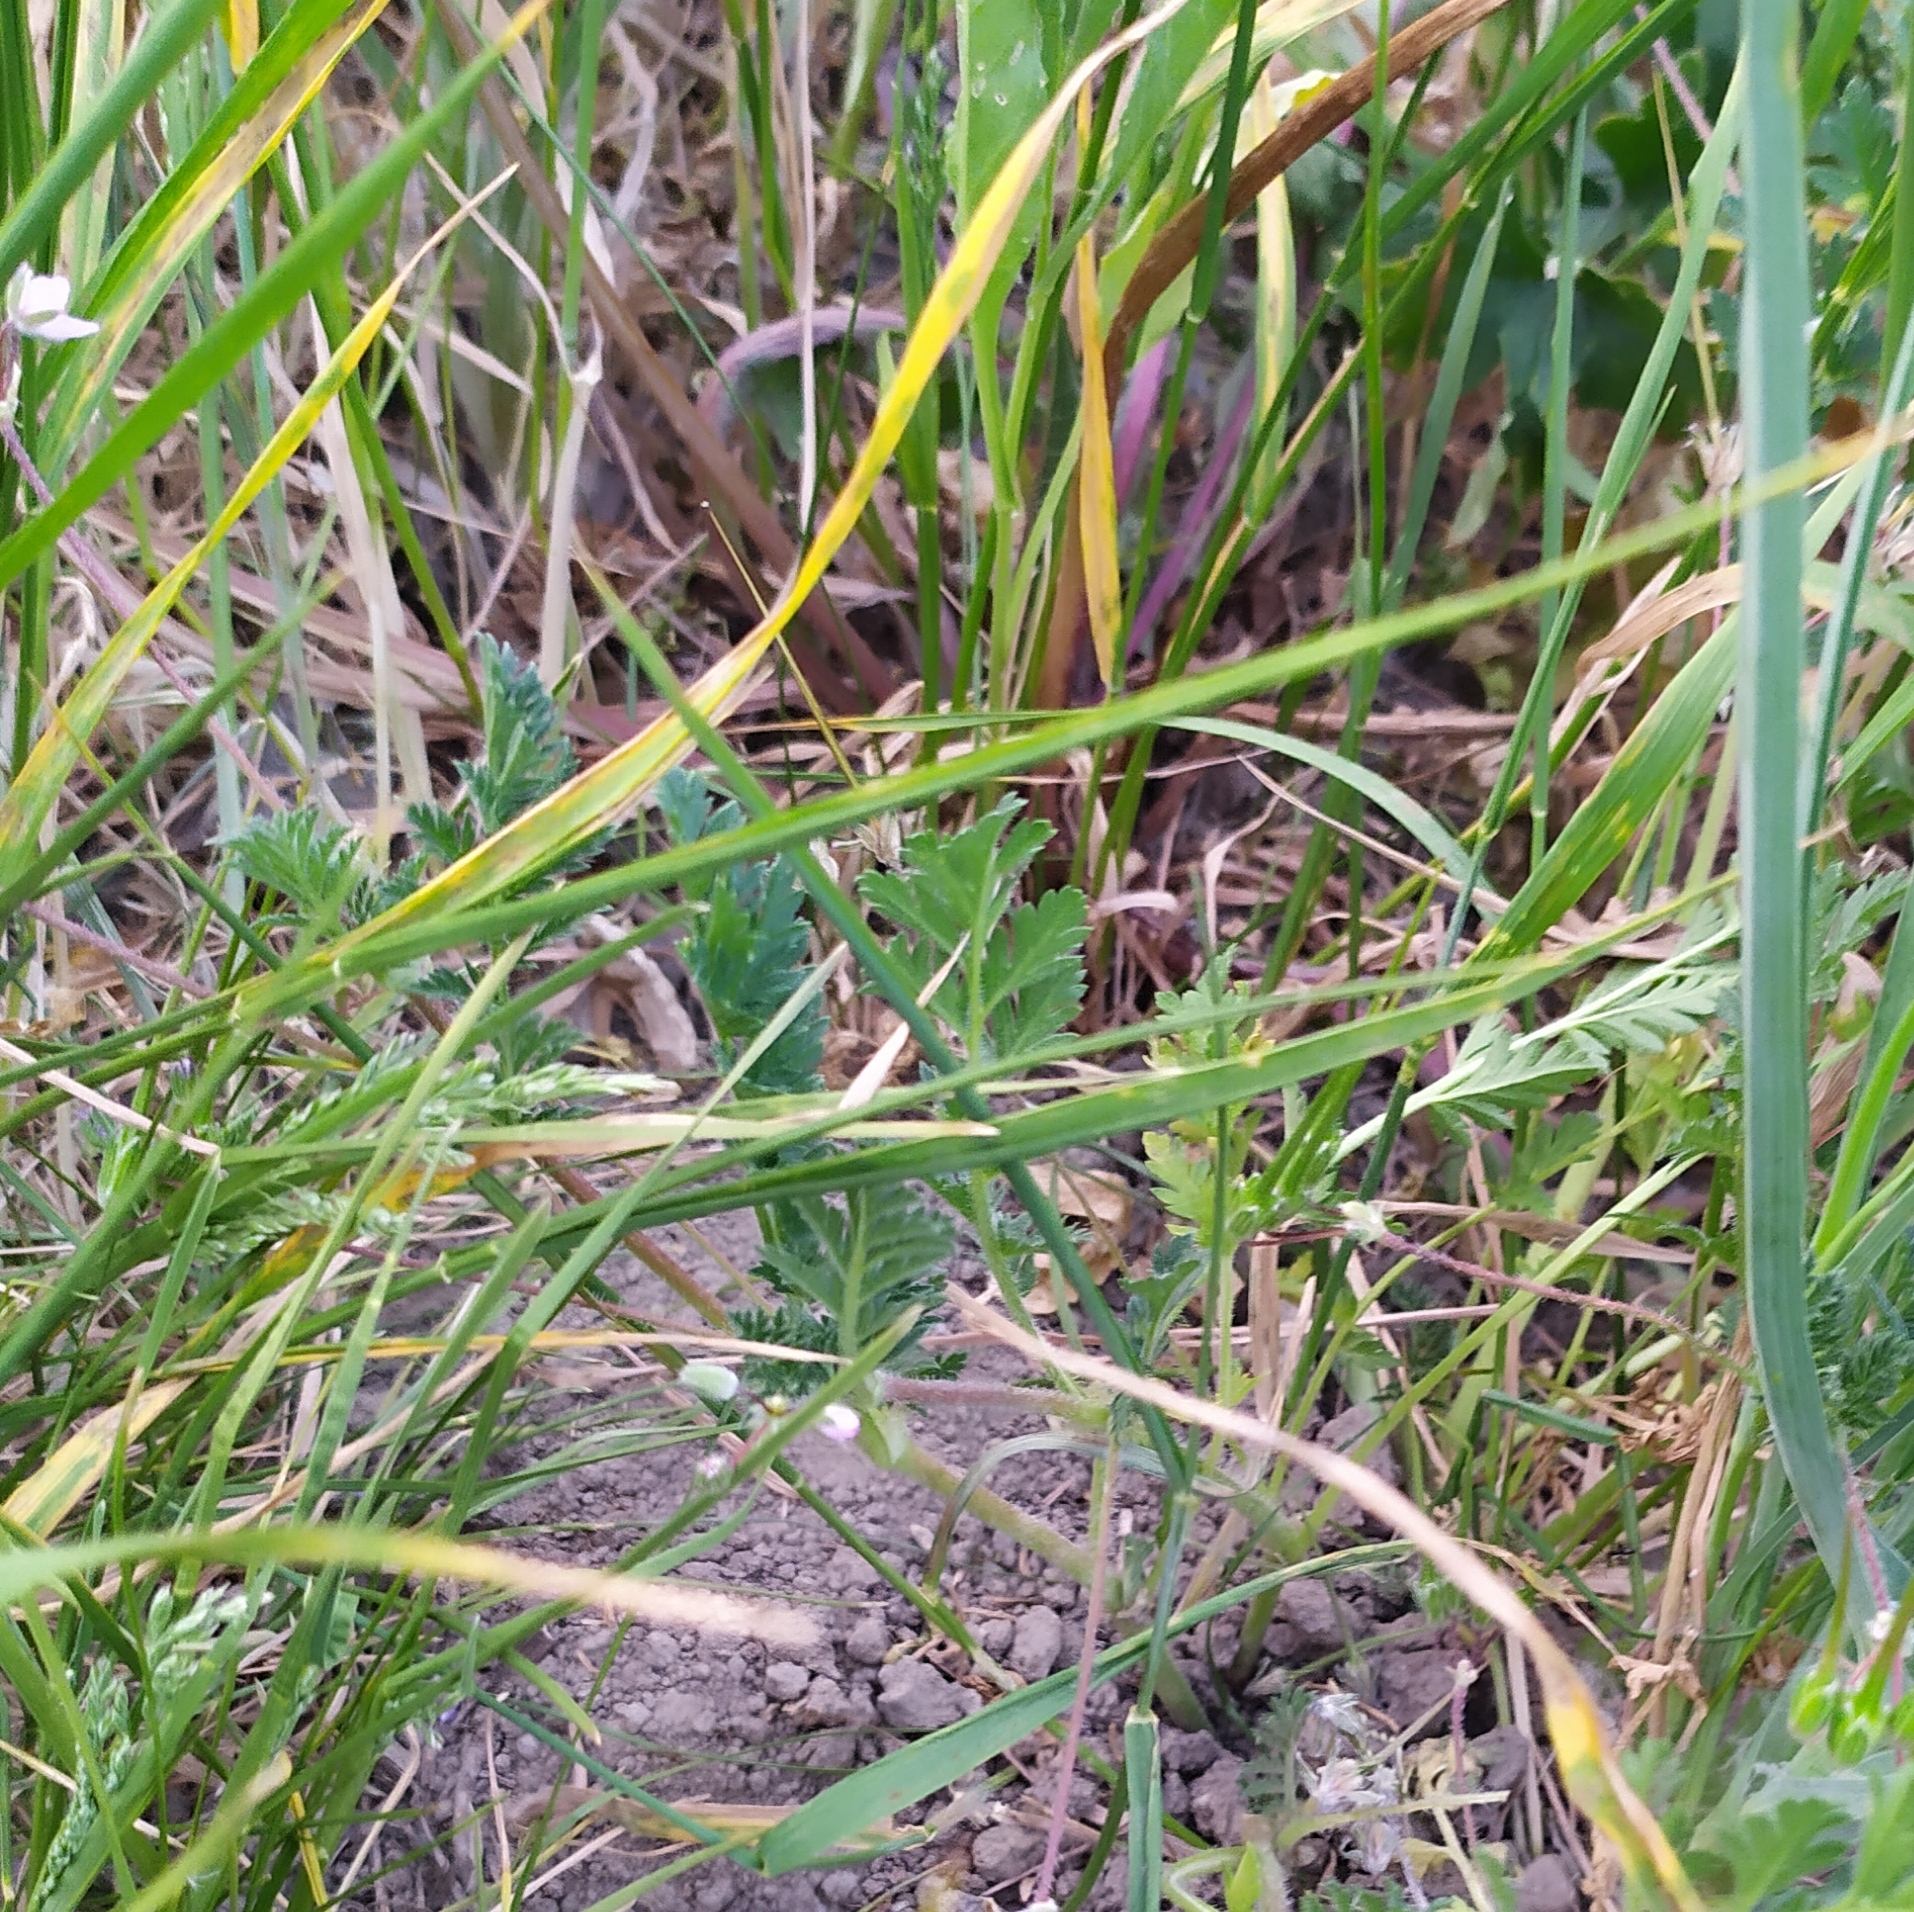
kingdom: Plantae
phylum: Tracheophyta
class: Magnoliopsida
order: Geraniales
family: Geraniaceae
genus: Erodium
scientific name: Erodium cicutarium
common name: Common stork's-bill
